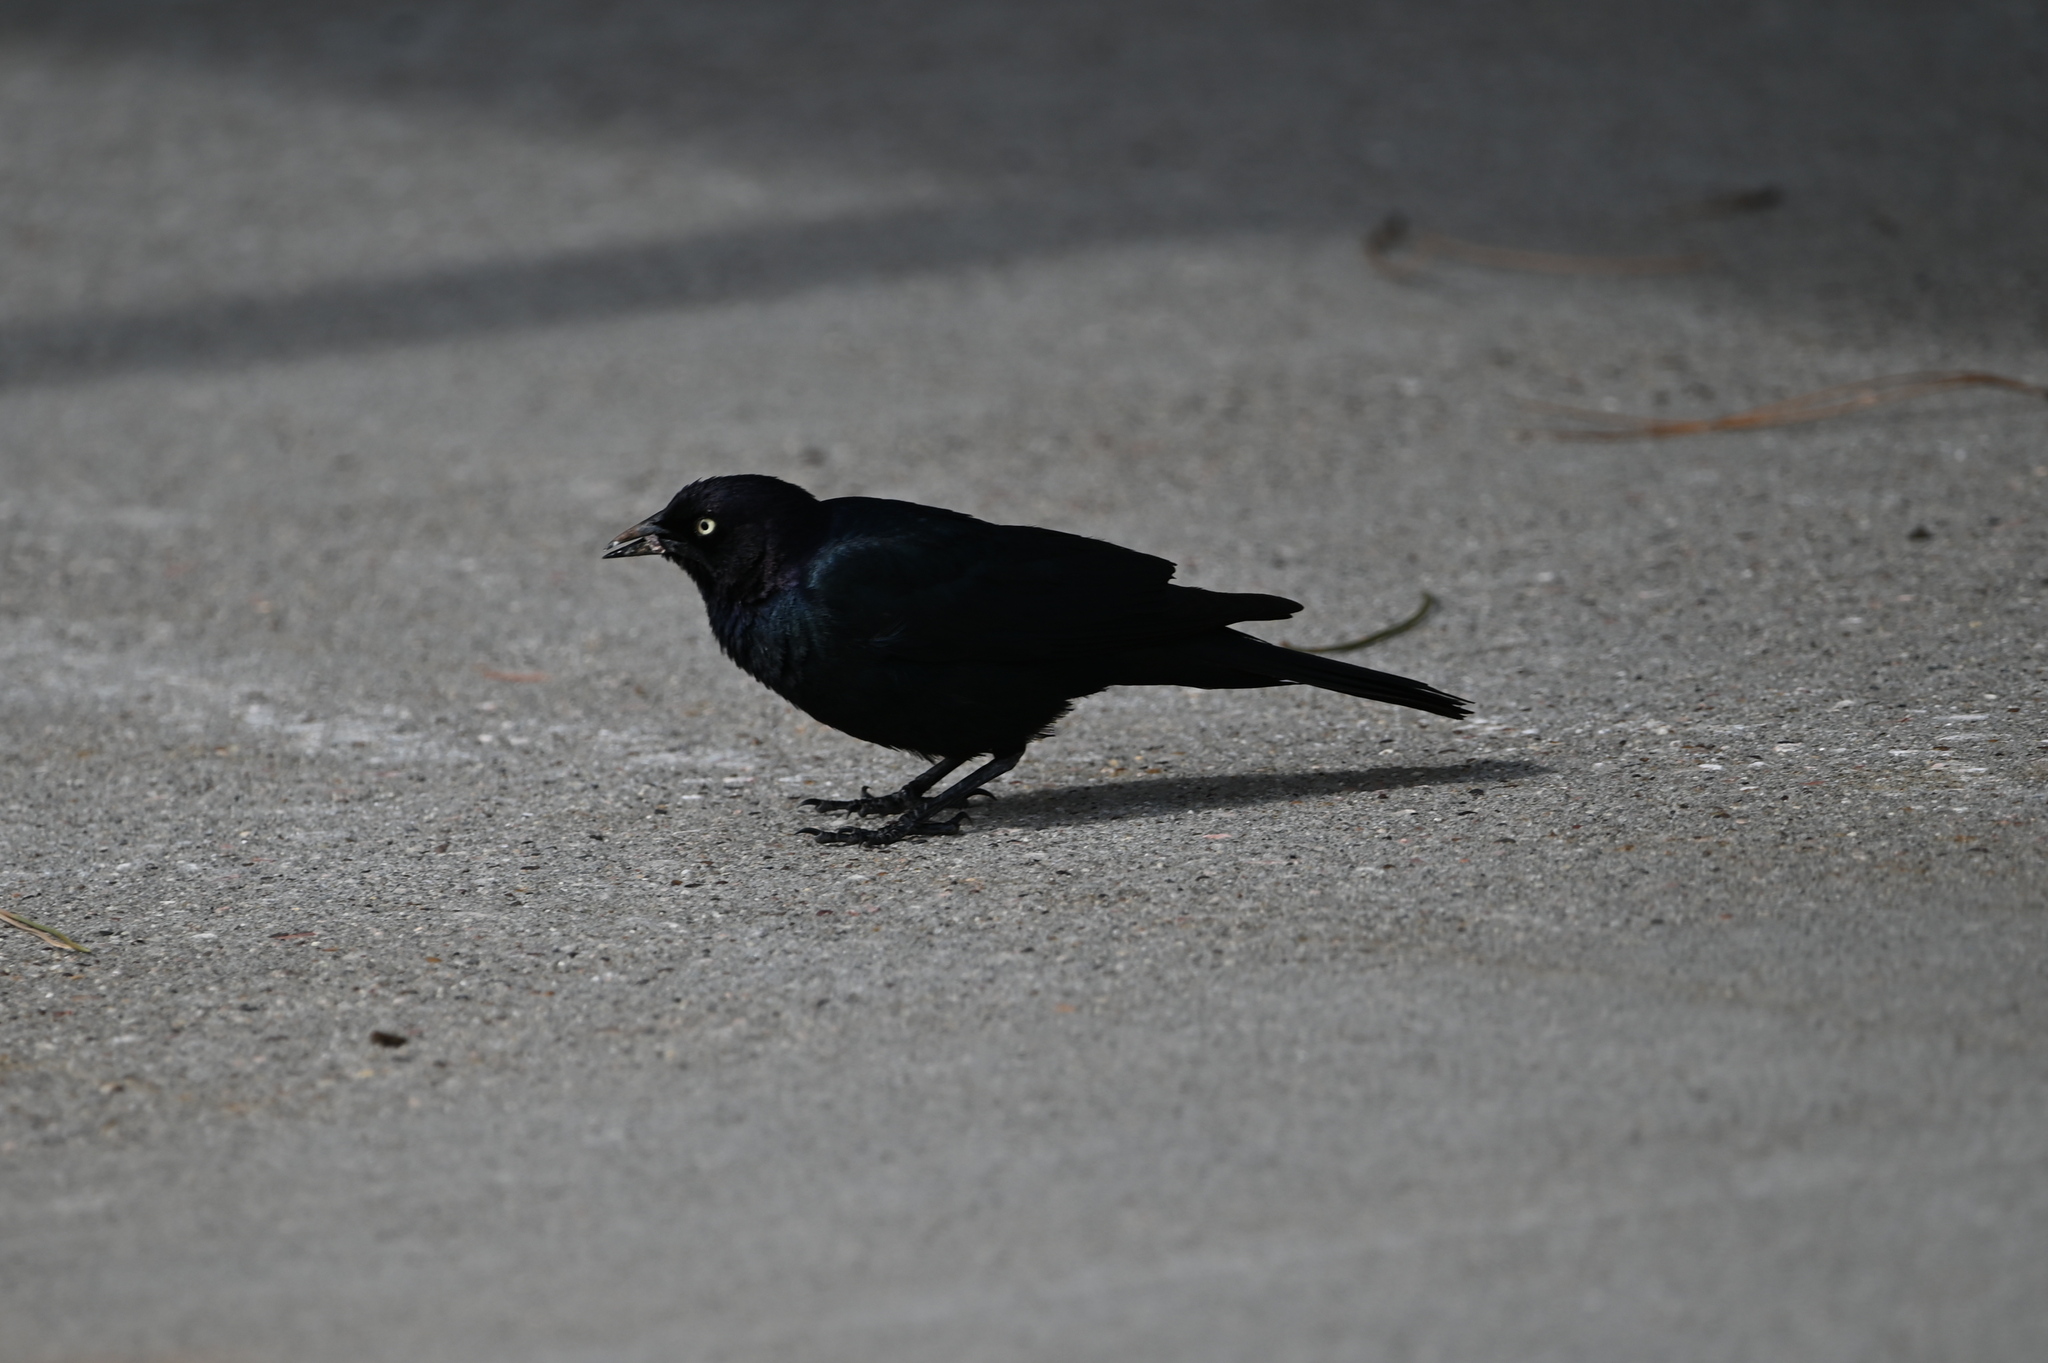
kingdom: Animalia
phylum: Chordata
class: Aves
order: Passeriformes
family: Icteridae
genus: Euphagus
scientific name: Euphagus cyanocephalus
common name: Brewer's blackbird
